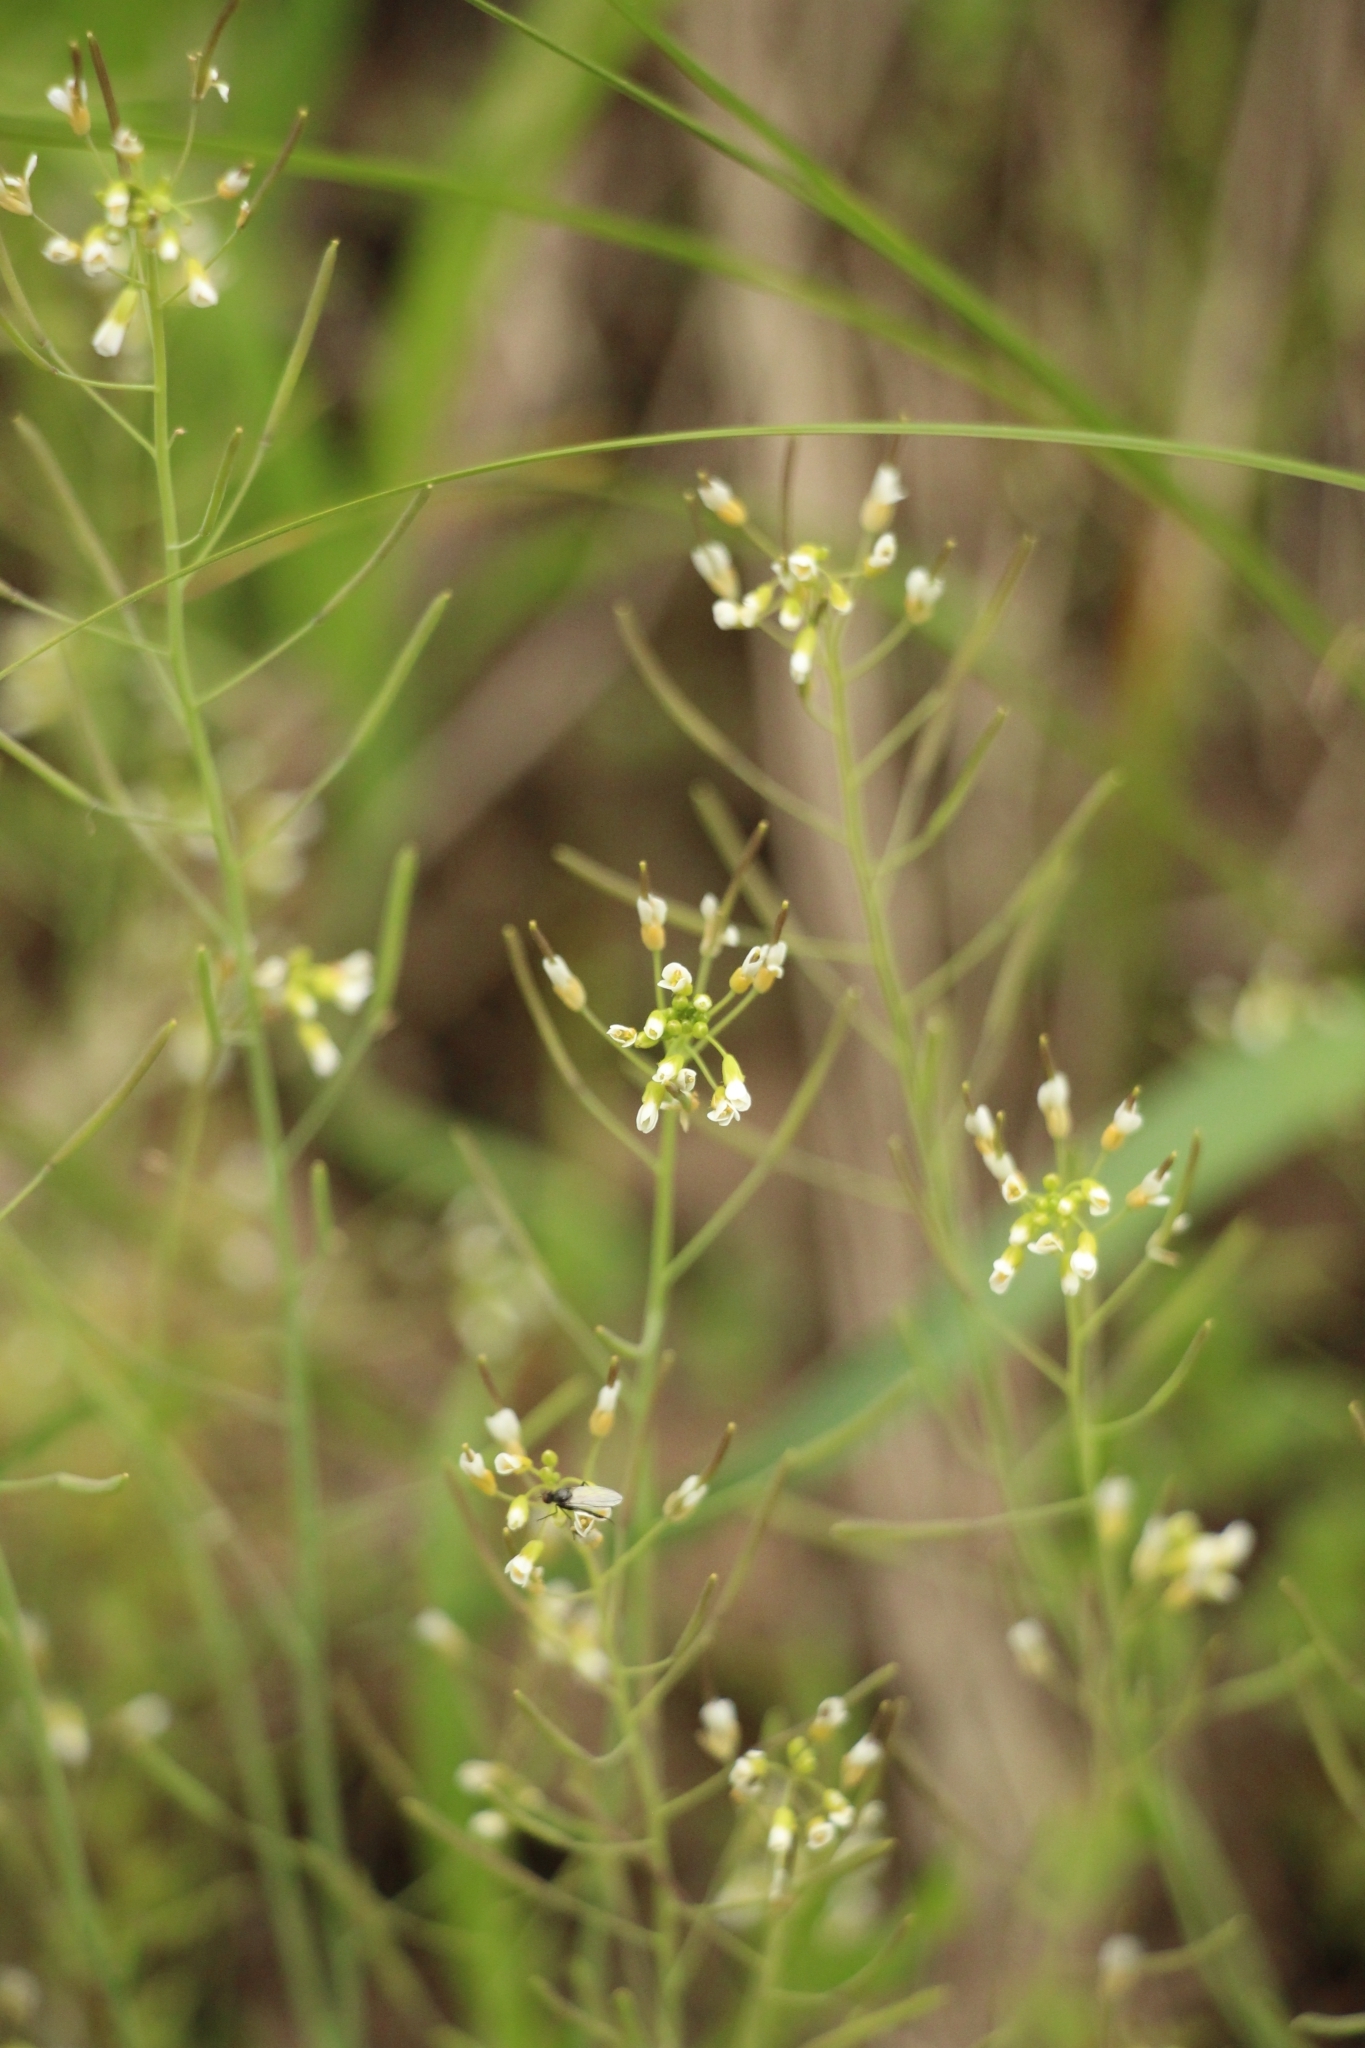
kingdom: Plantae
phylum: Tracheophyta
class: Magnoliopsida
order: Brassicales
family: Brassicaceae
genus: Arabidopsis
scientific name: Arabidopsis thaliana
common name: Thale cress
